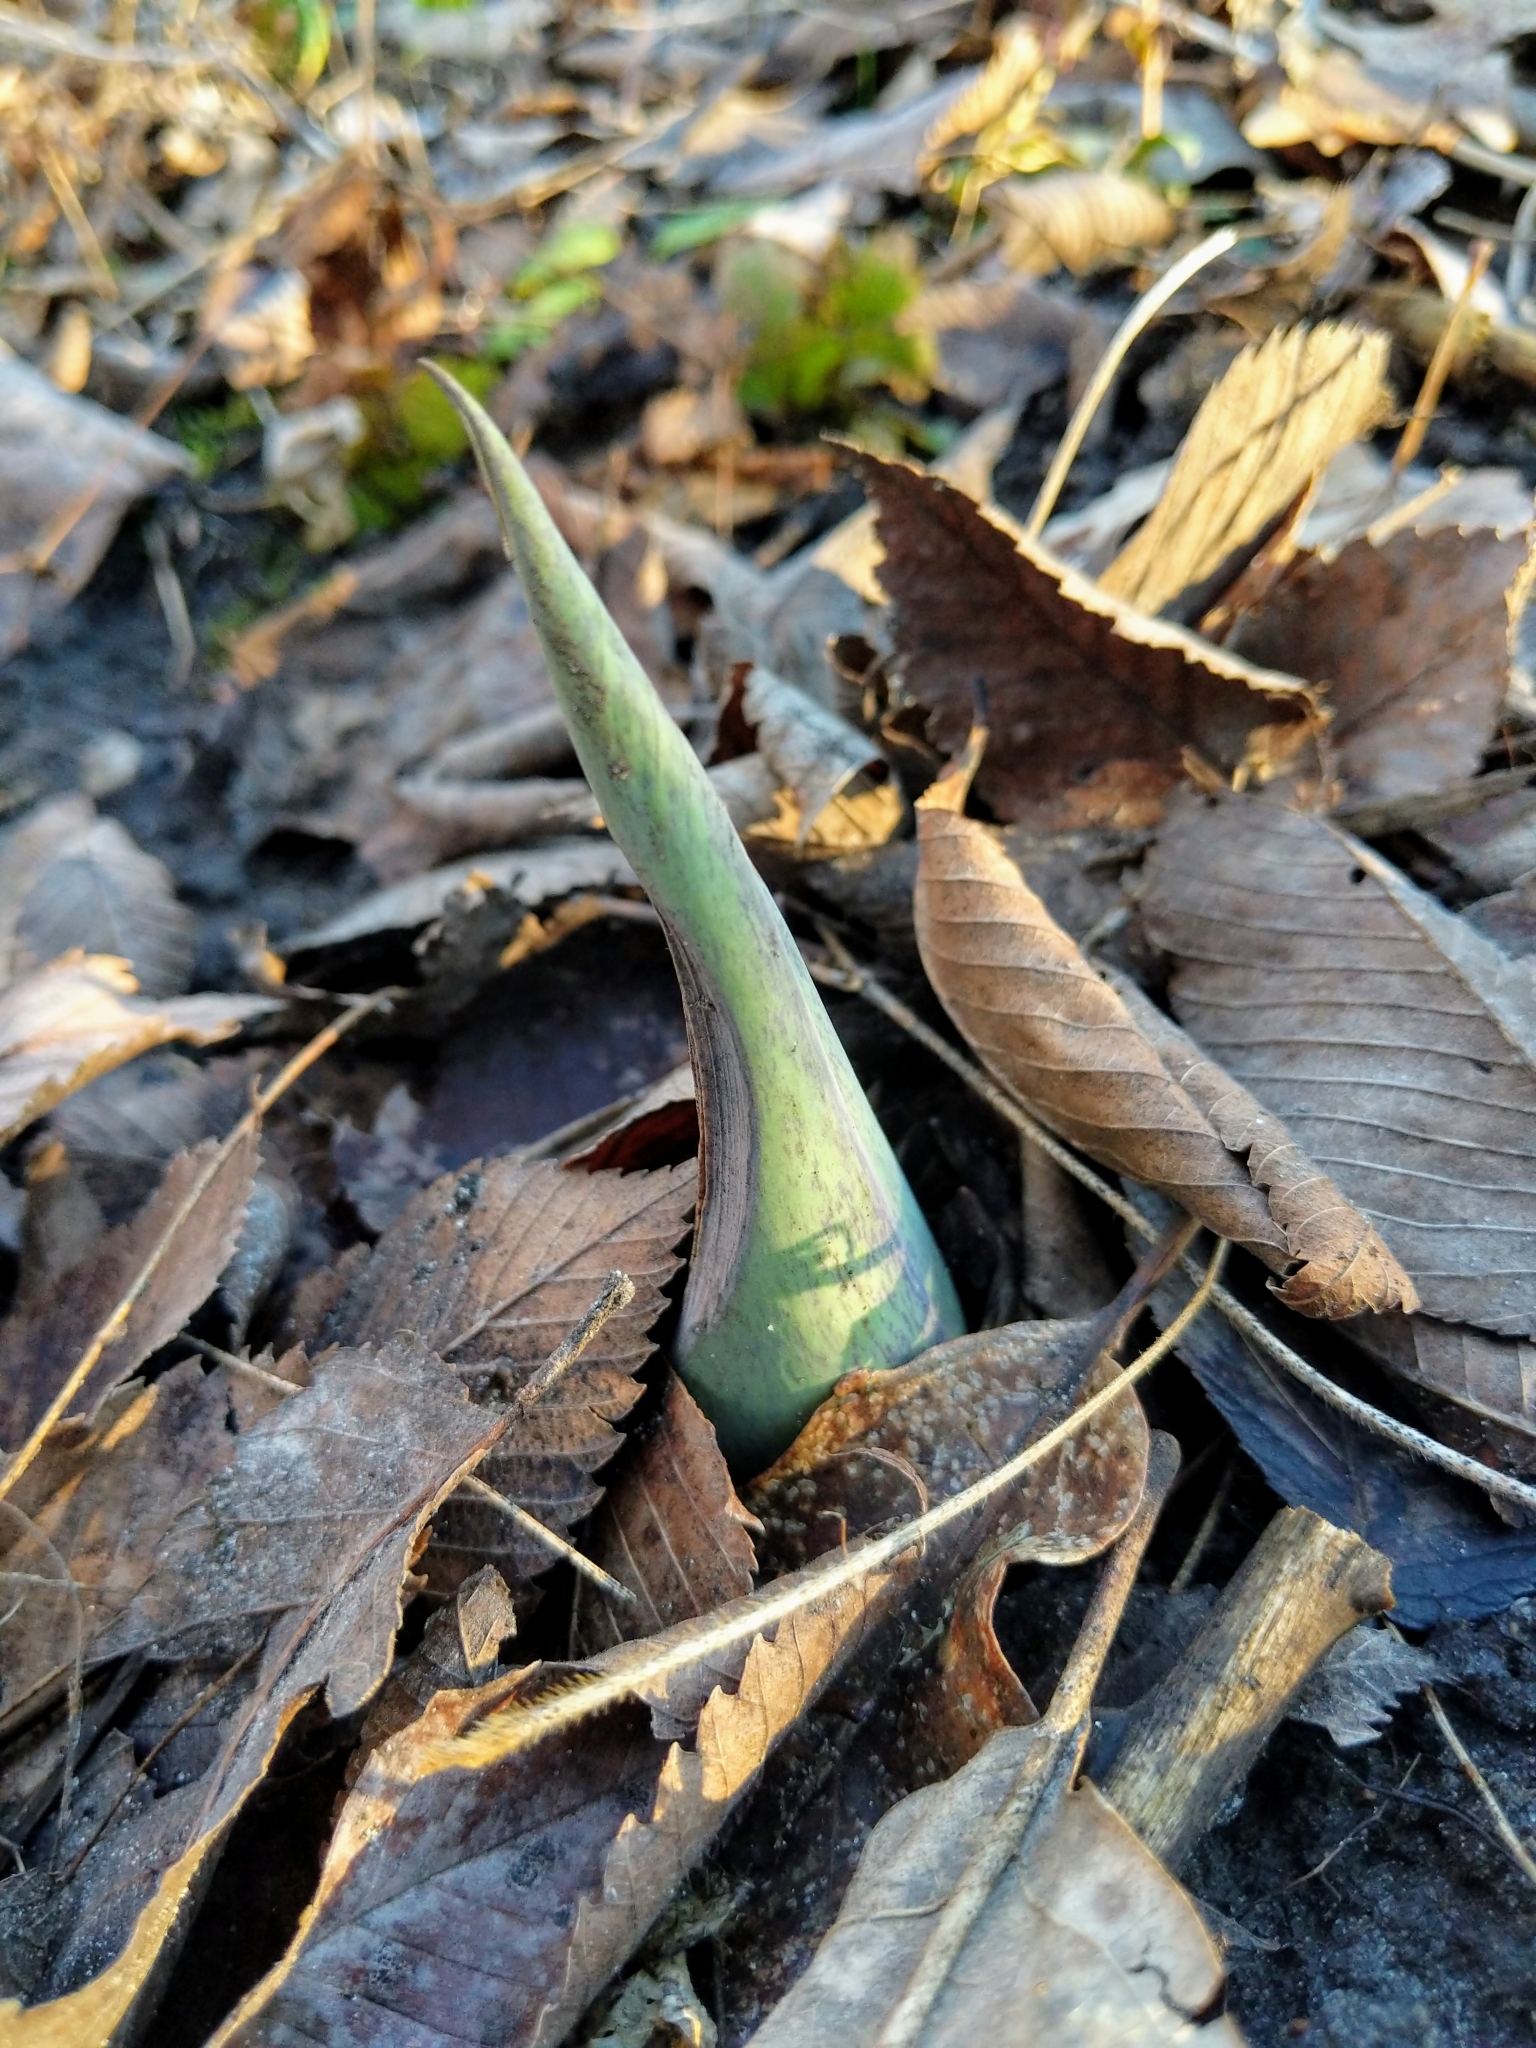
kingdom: Plantae
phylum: Tracheophyta
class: Liliopsida
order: Alismatales
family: Araceae
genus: Symplocarpus
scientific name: Symplocarpus foetidus
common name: Eastern skunk cabbage
